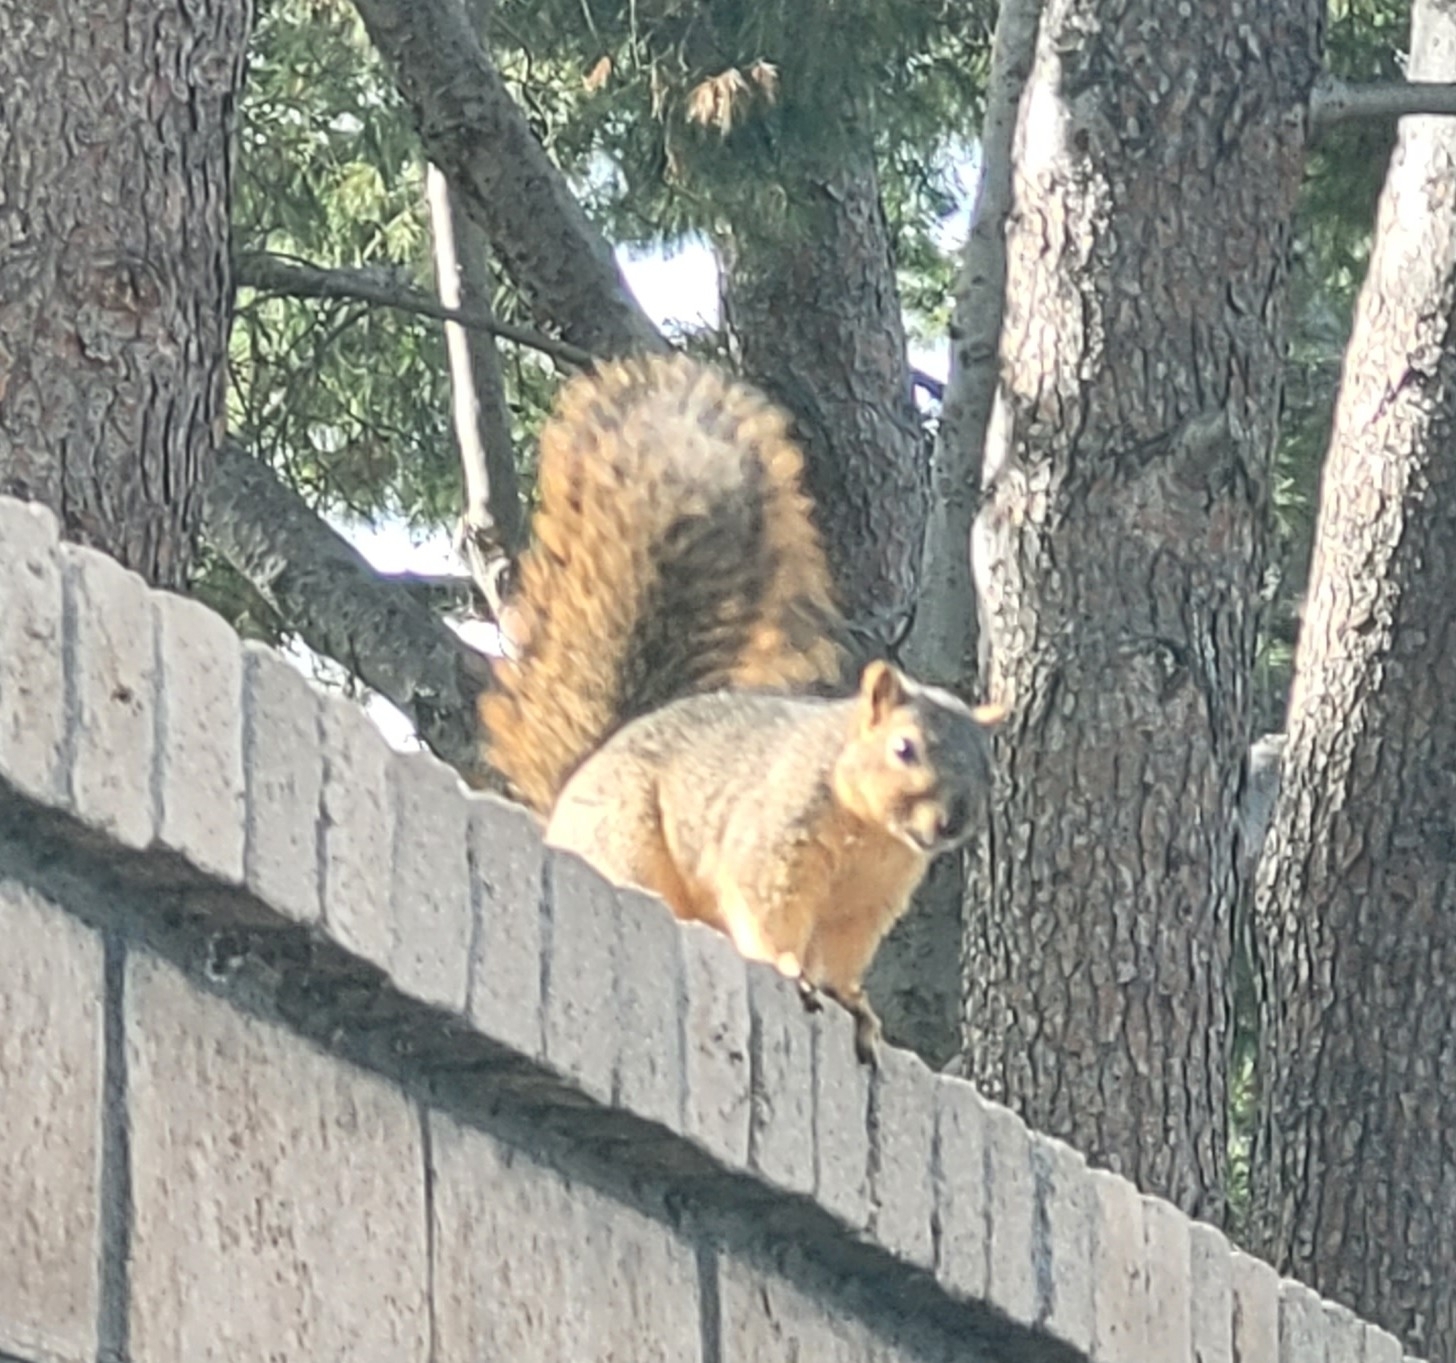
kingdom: Animalia
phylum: Chordata
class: Mammalia
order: Rodentia
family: Sciuridae
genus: Sciurus
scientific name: Sciurus niger
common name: Fox squirrel
